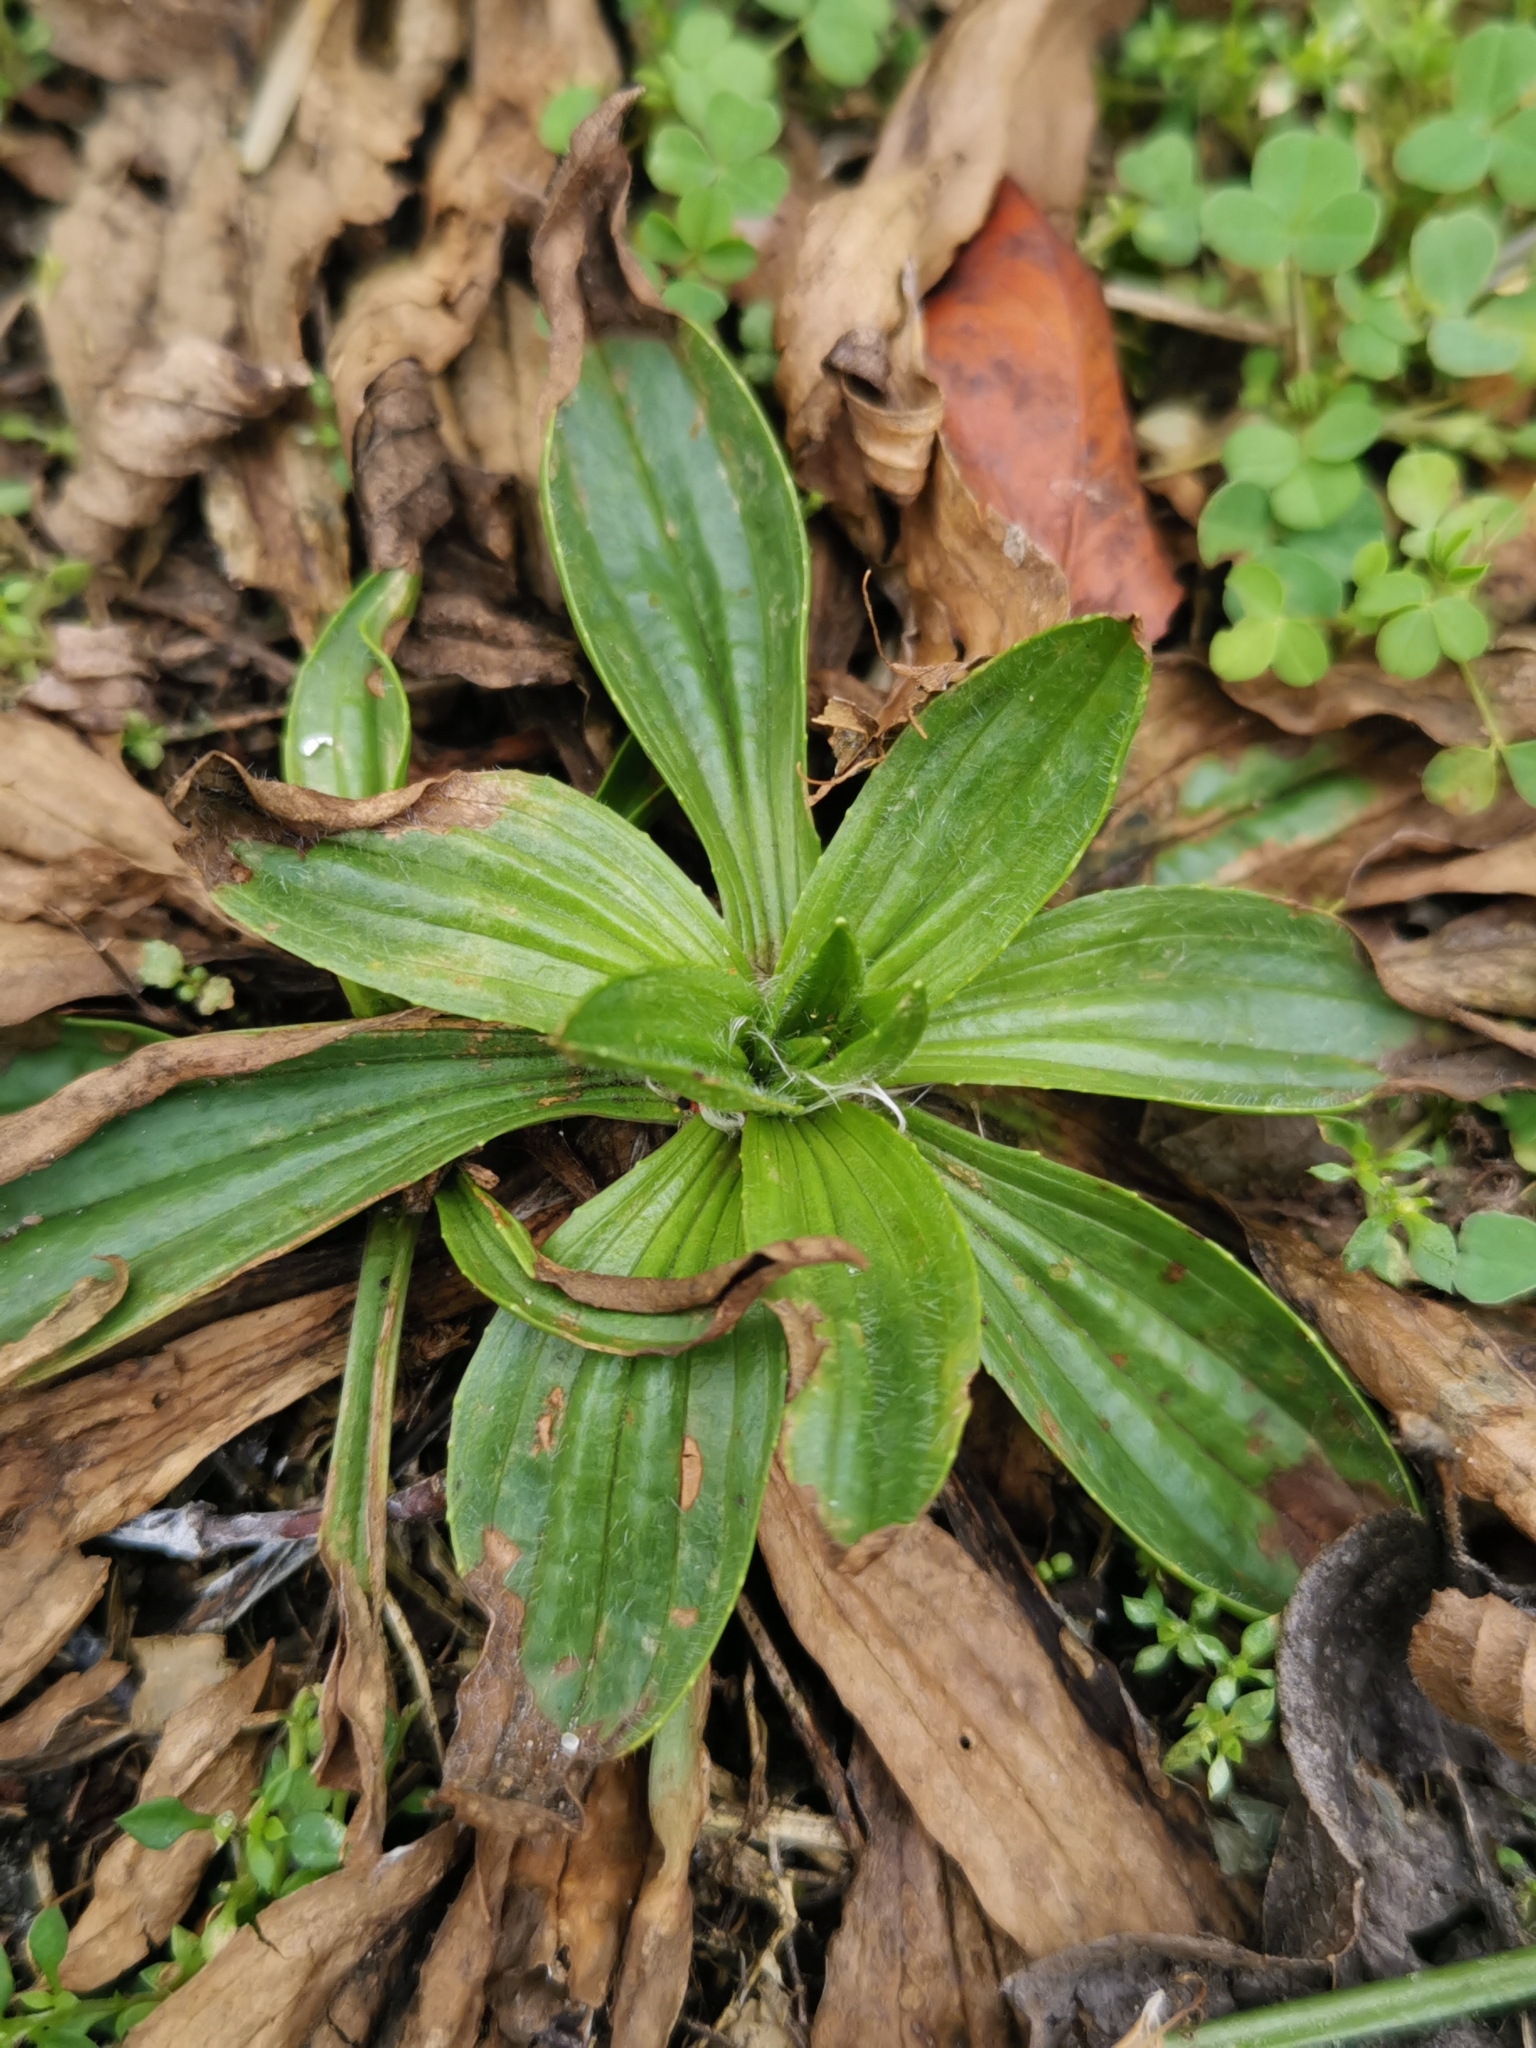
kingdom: Plantae
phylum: Tracheophyta
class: Magnoliopsida
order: Lamiales
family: Plantaginaceae
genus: Plantago
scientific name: Plantago lanceolata
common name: Ribwort plantain
